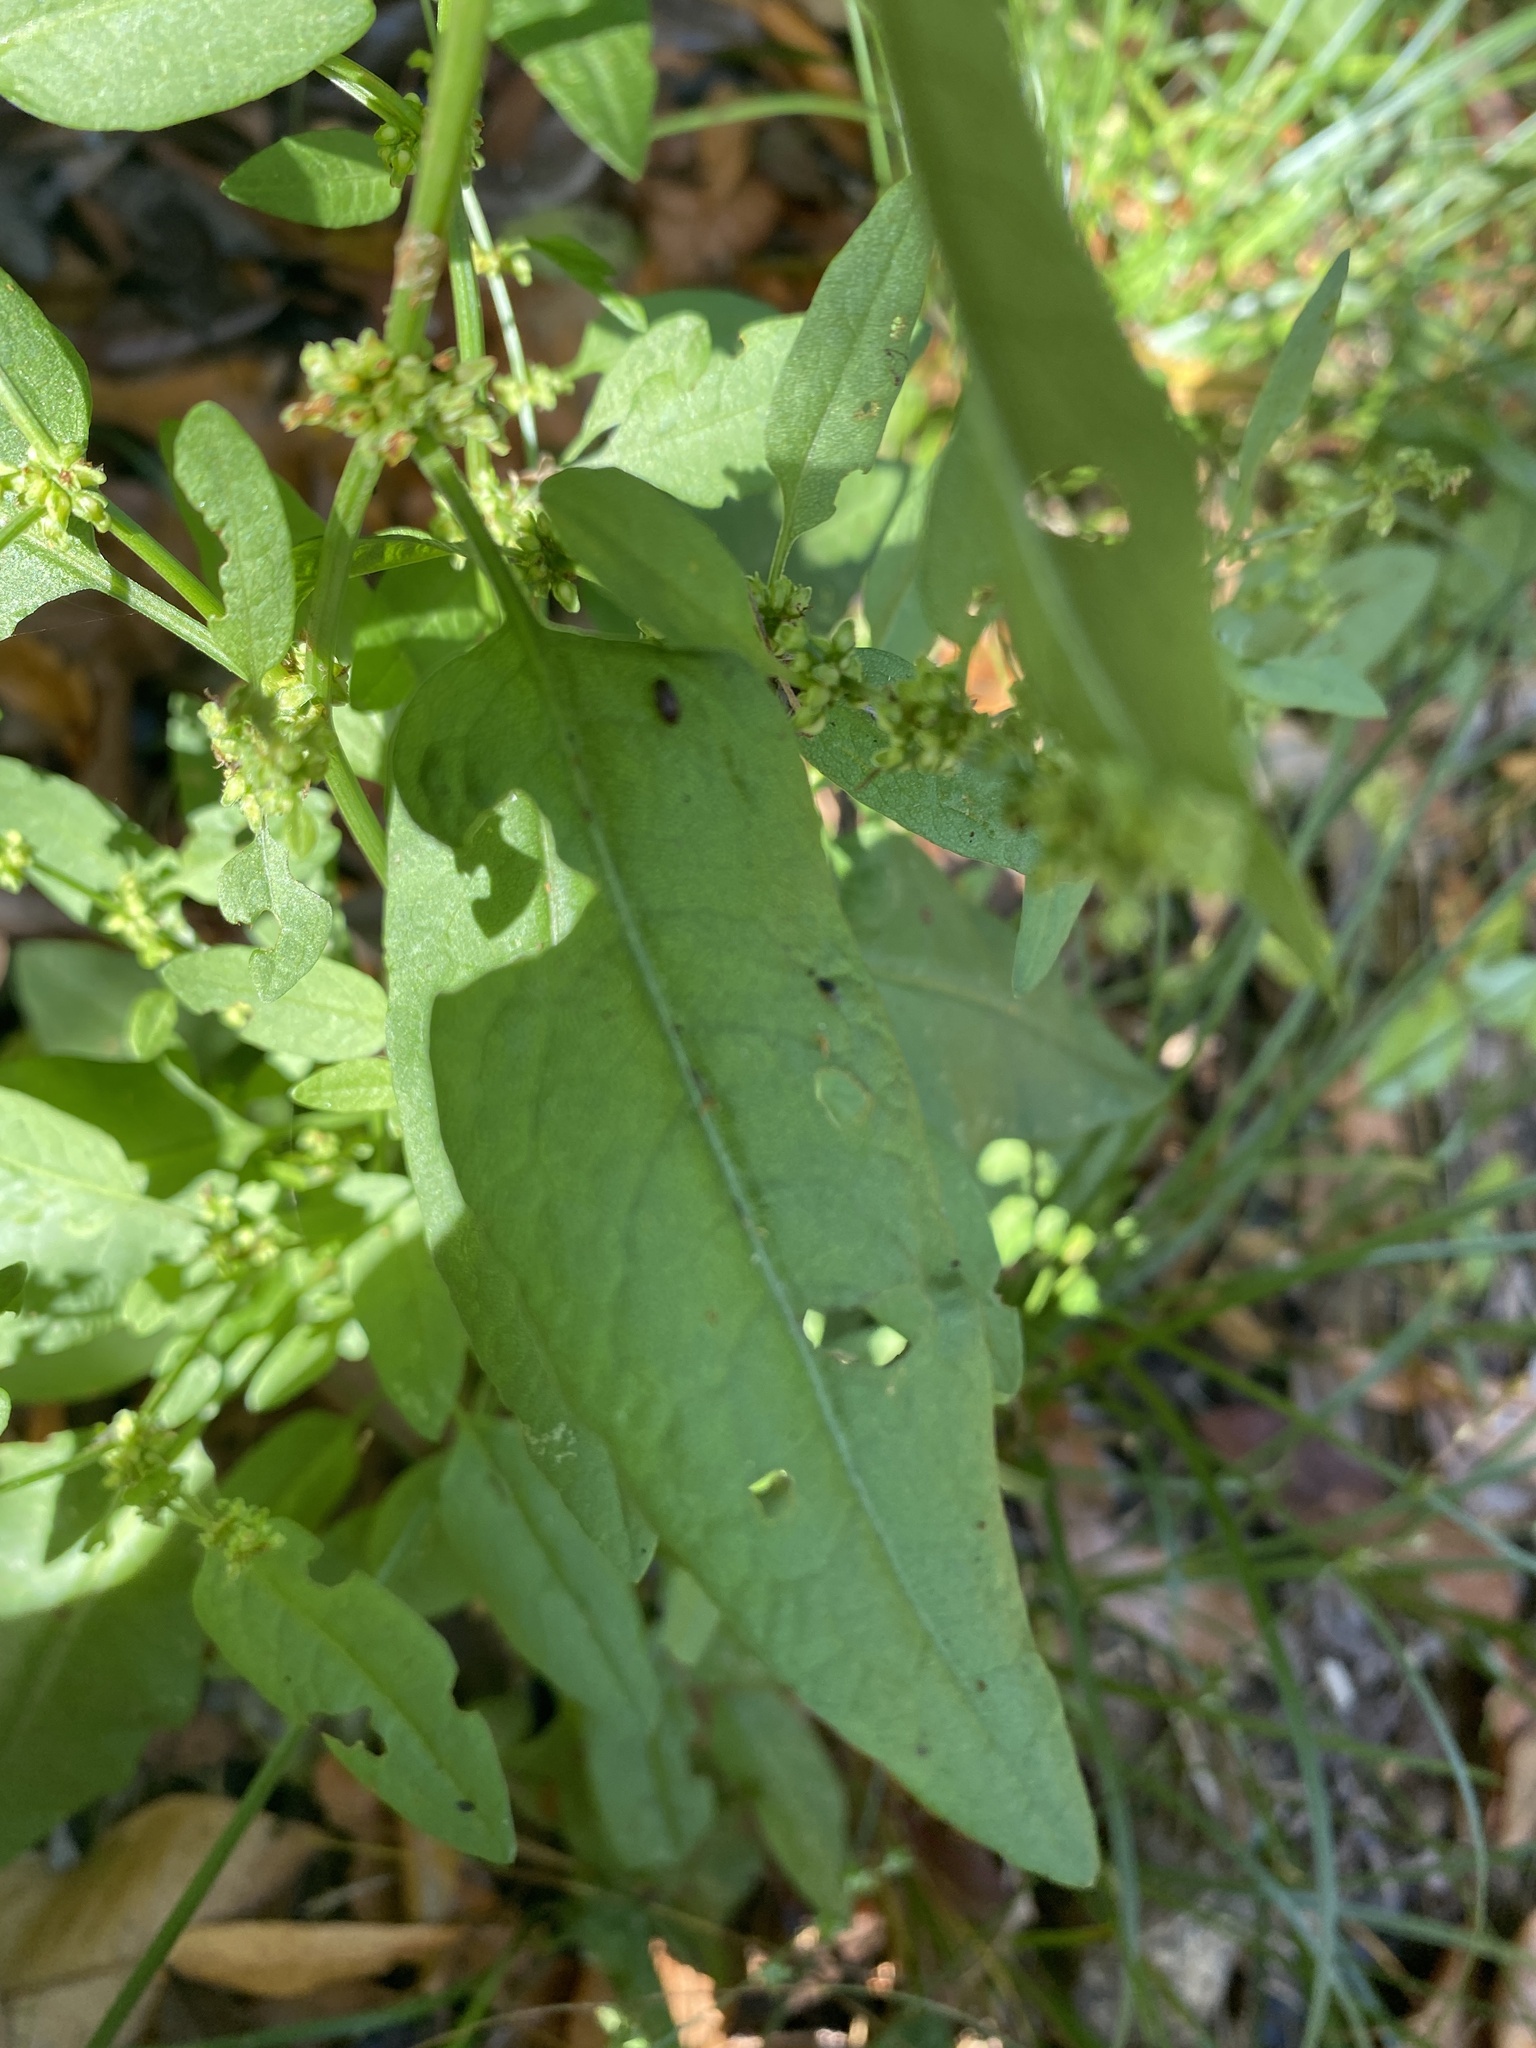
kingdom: Plantae
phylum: Tracheophyta
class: Magnoliopsida
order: Caryophyllales
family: Polygonaceae
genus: Rumex
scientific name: Rumex conglomeratus
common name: Clustered dock
